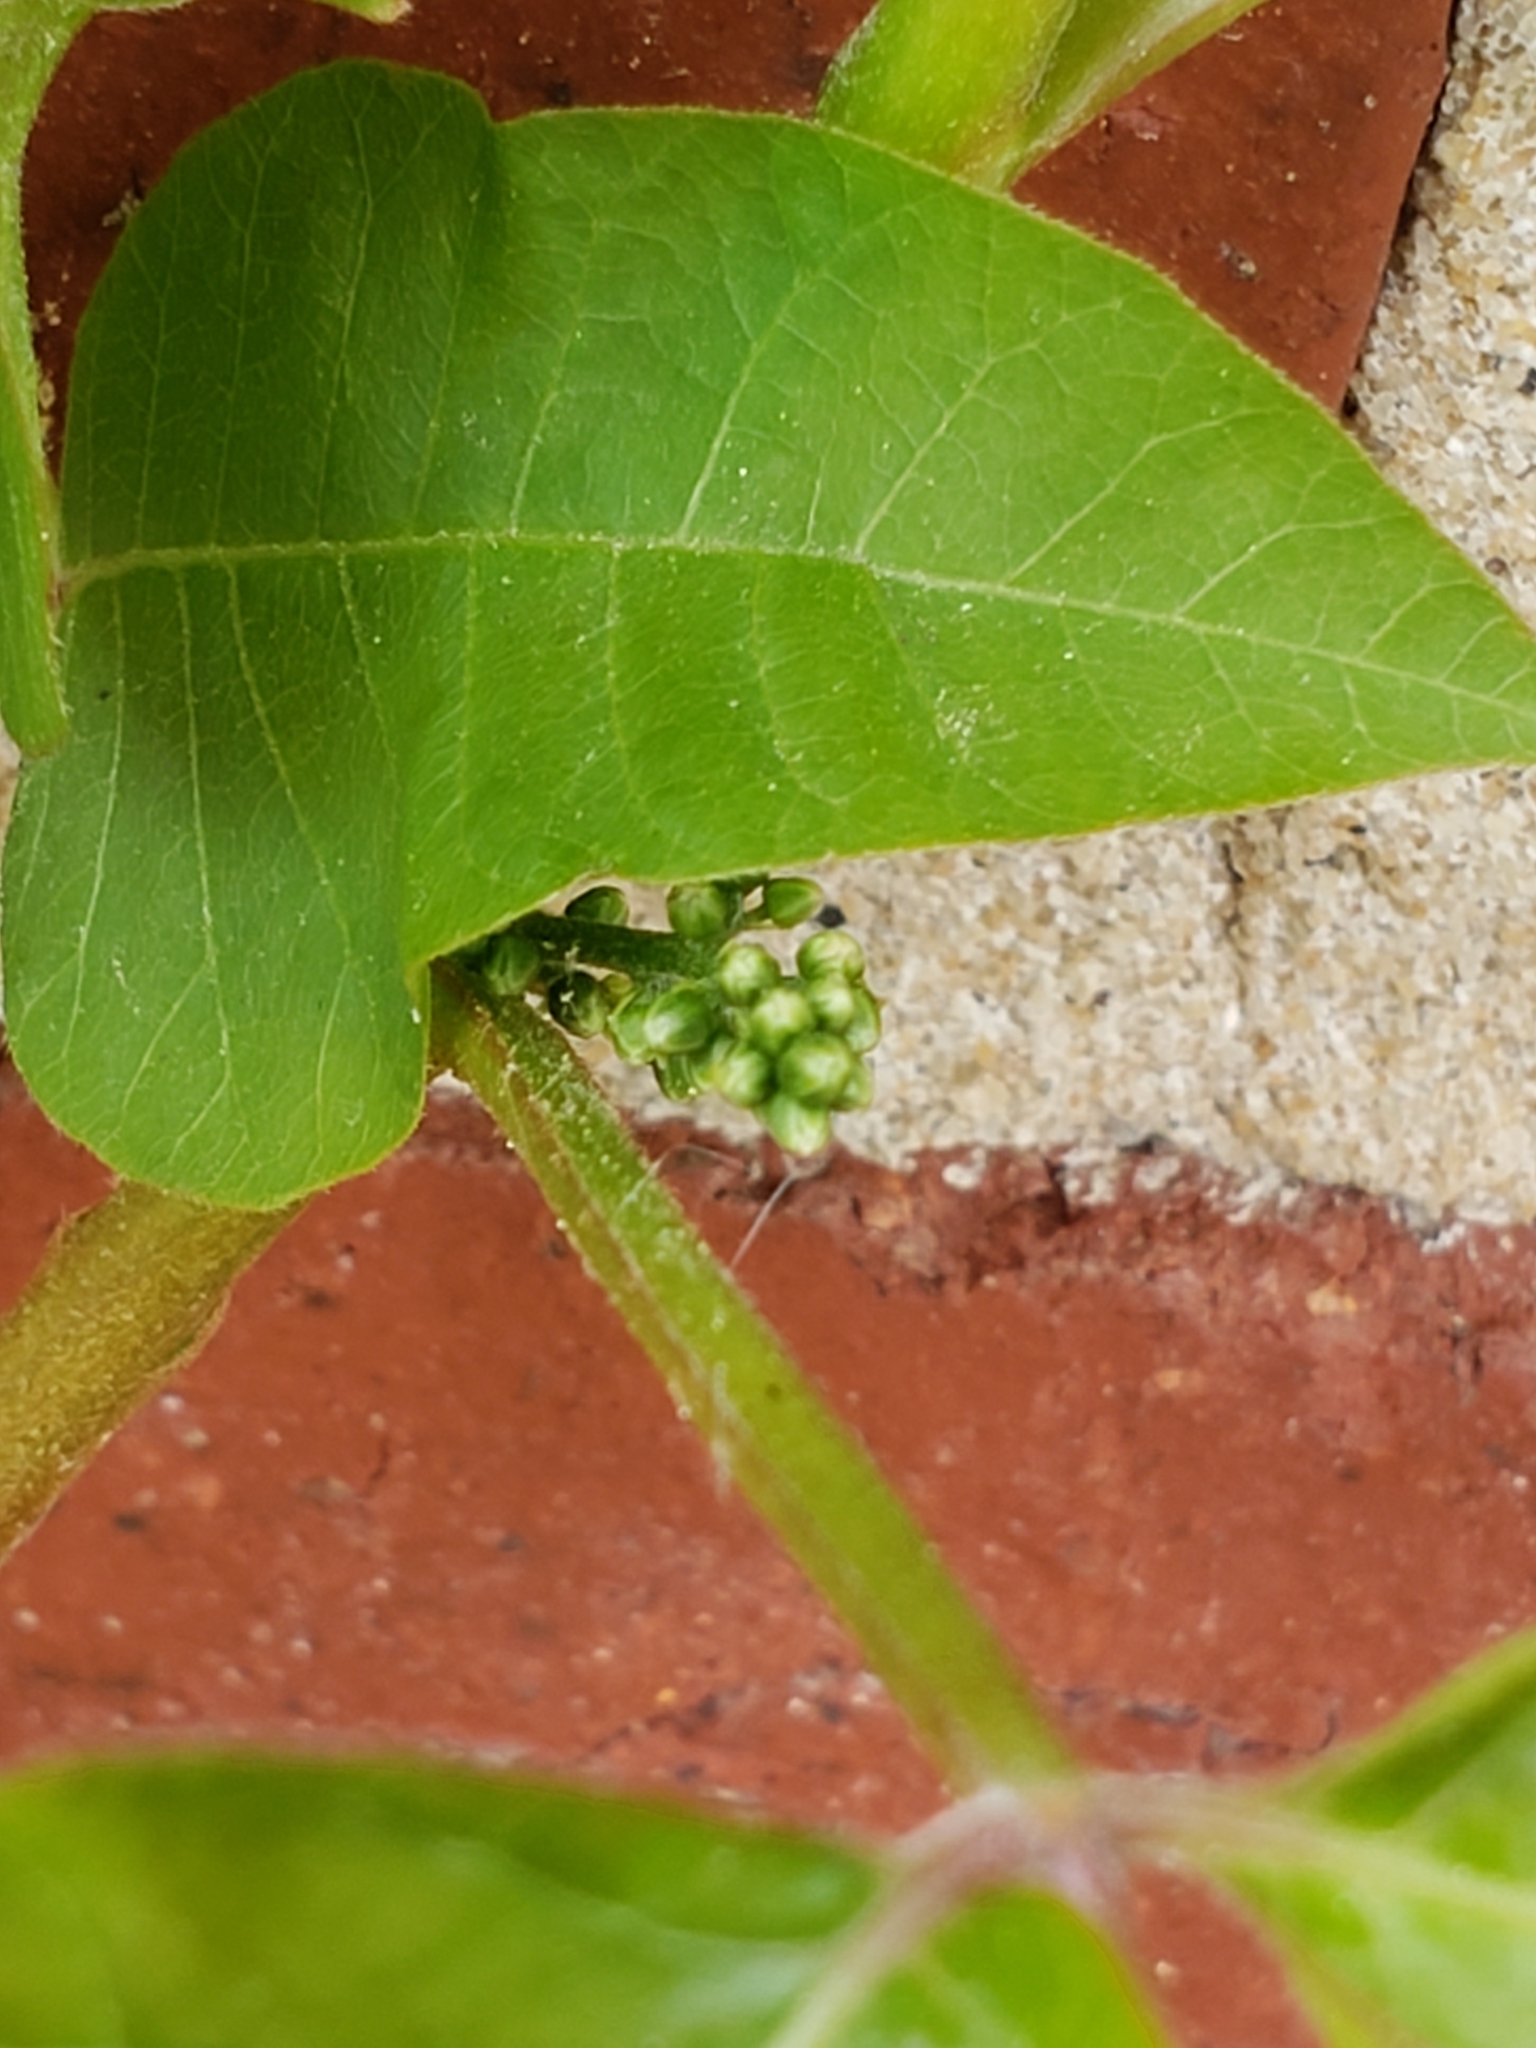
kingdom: Plantae
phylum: Tracheophyta
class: Magnoliopsida
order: Sapindales
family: Anacardiaceae
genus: Toxicodendron
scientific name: Toxicodendron radicans
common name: Poison ivy
